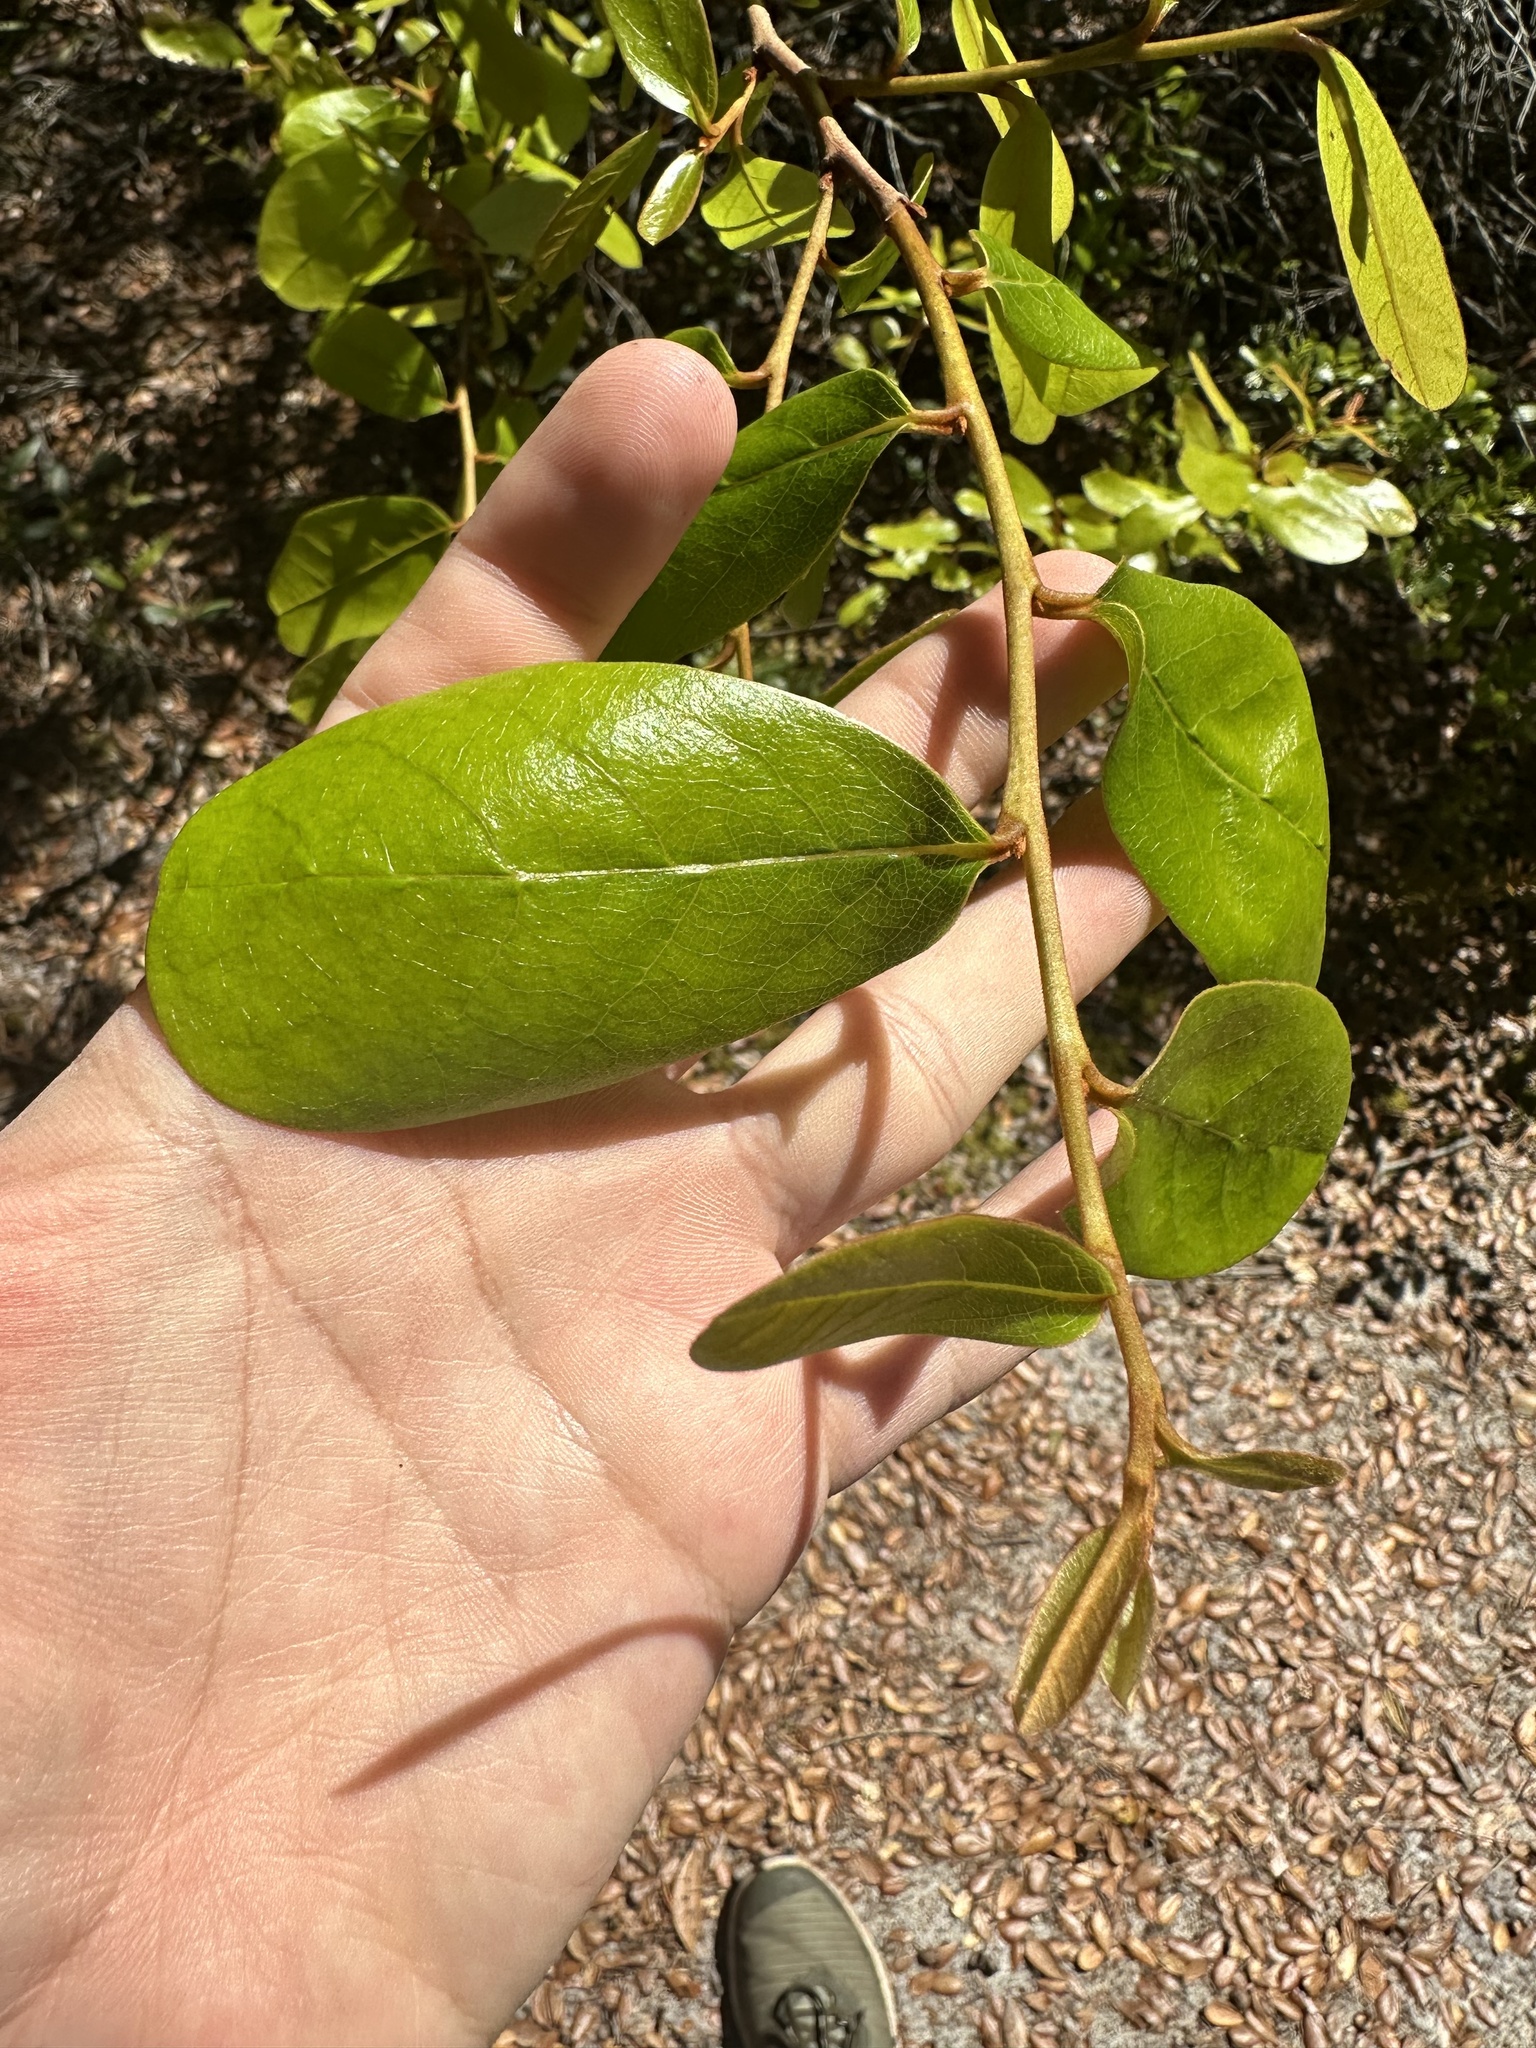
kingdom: Plantae
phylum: Tracheophyta
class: Magnoliopsida
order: Magnoliales
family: Annonaceae
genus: Asimina
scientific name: Asimina obovata
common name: Flag pawpaw
